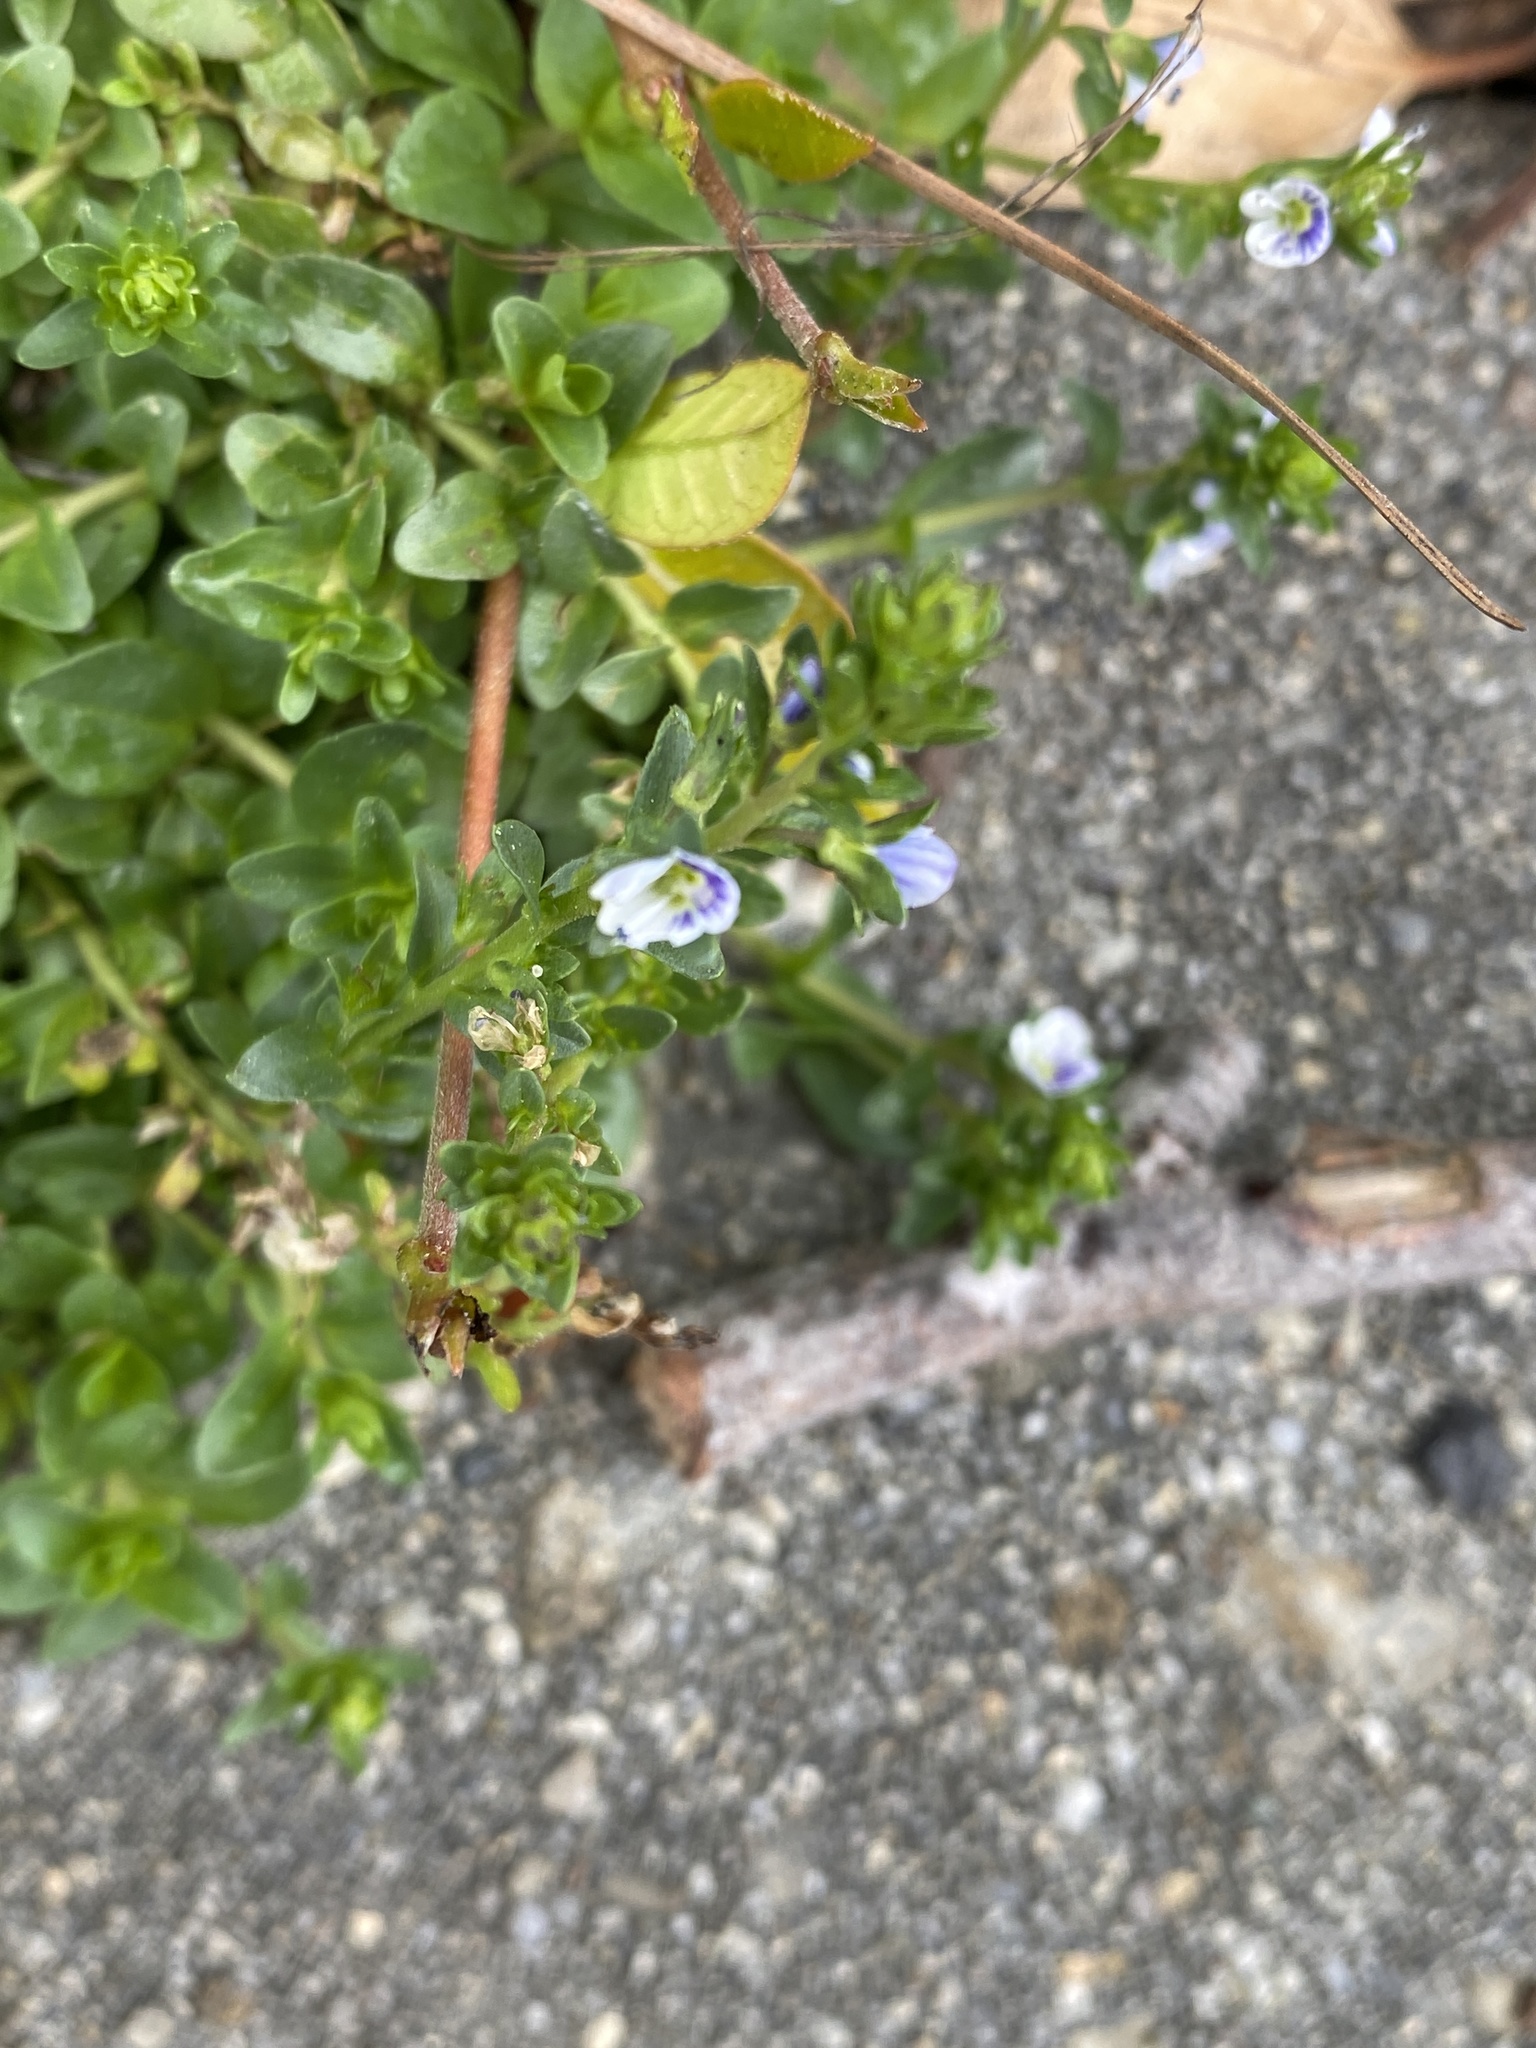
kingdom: Plantae
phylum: Tracheophyta
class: Magnoliopsida
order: Lamiales
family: Plantaginaceae
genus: Veronica
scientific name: Veronica serpyllifolia
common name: Thyme-leaved speedwell
